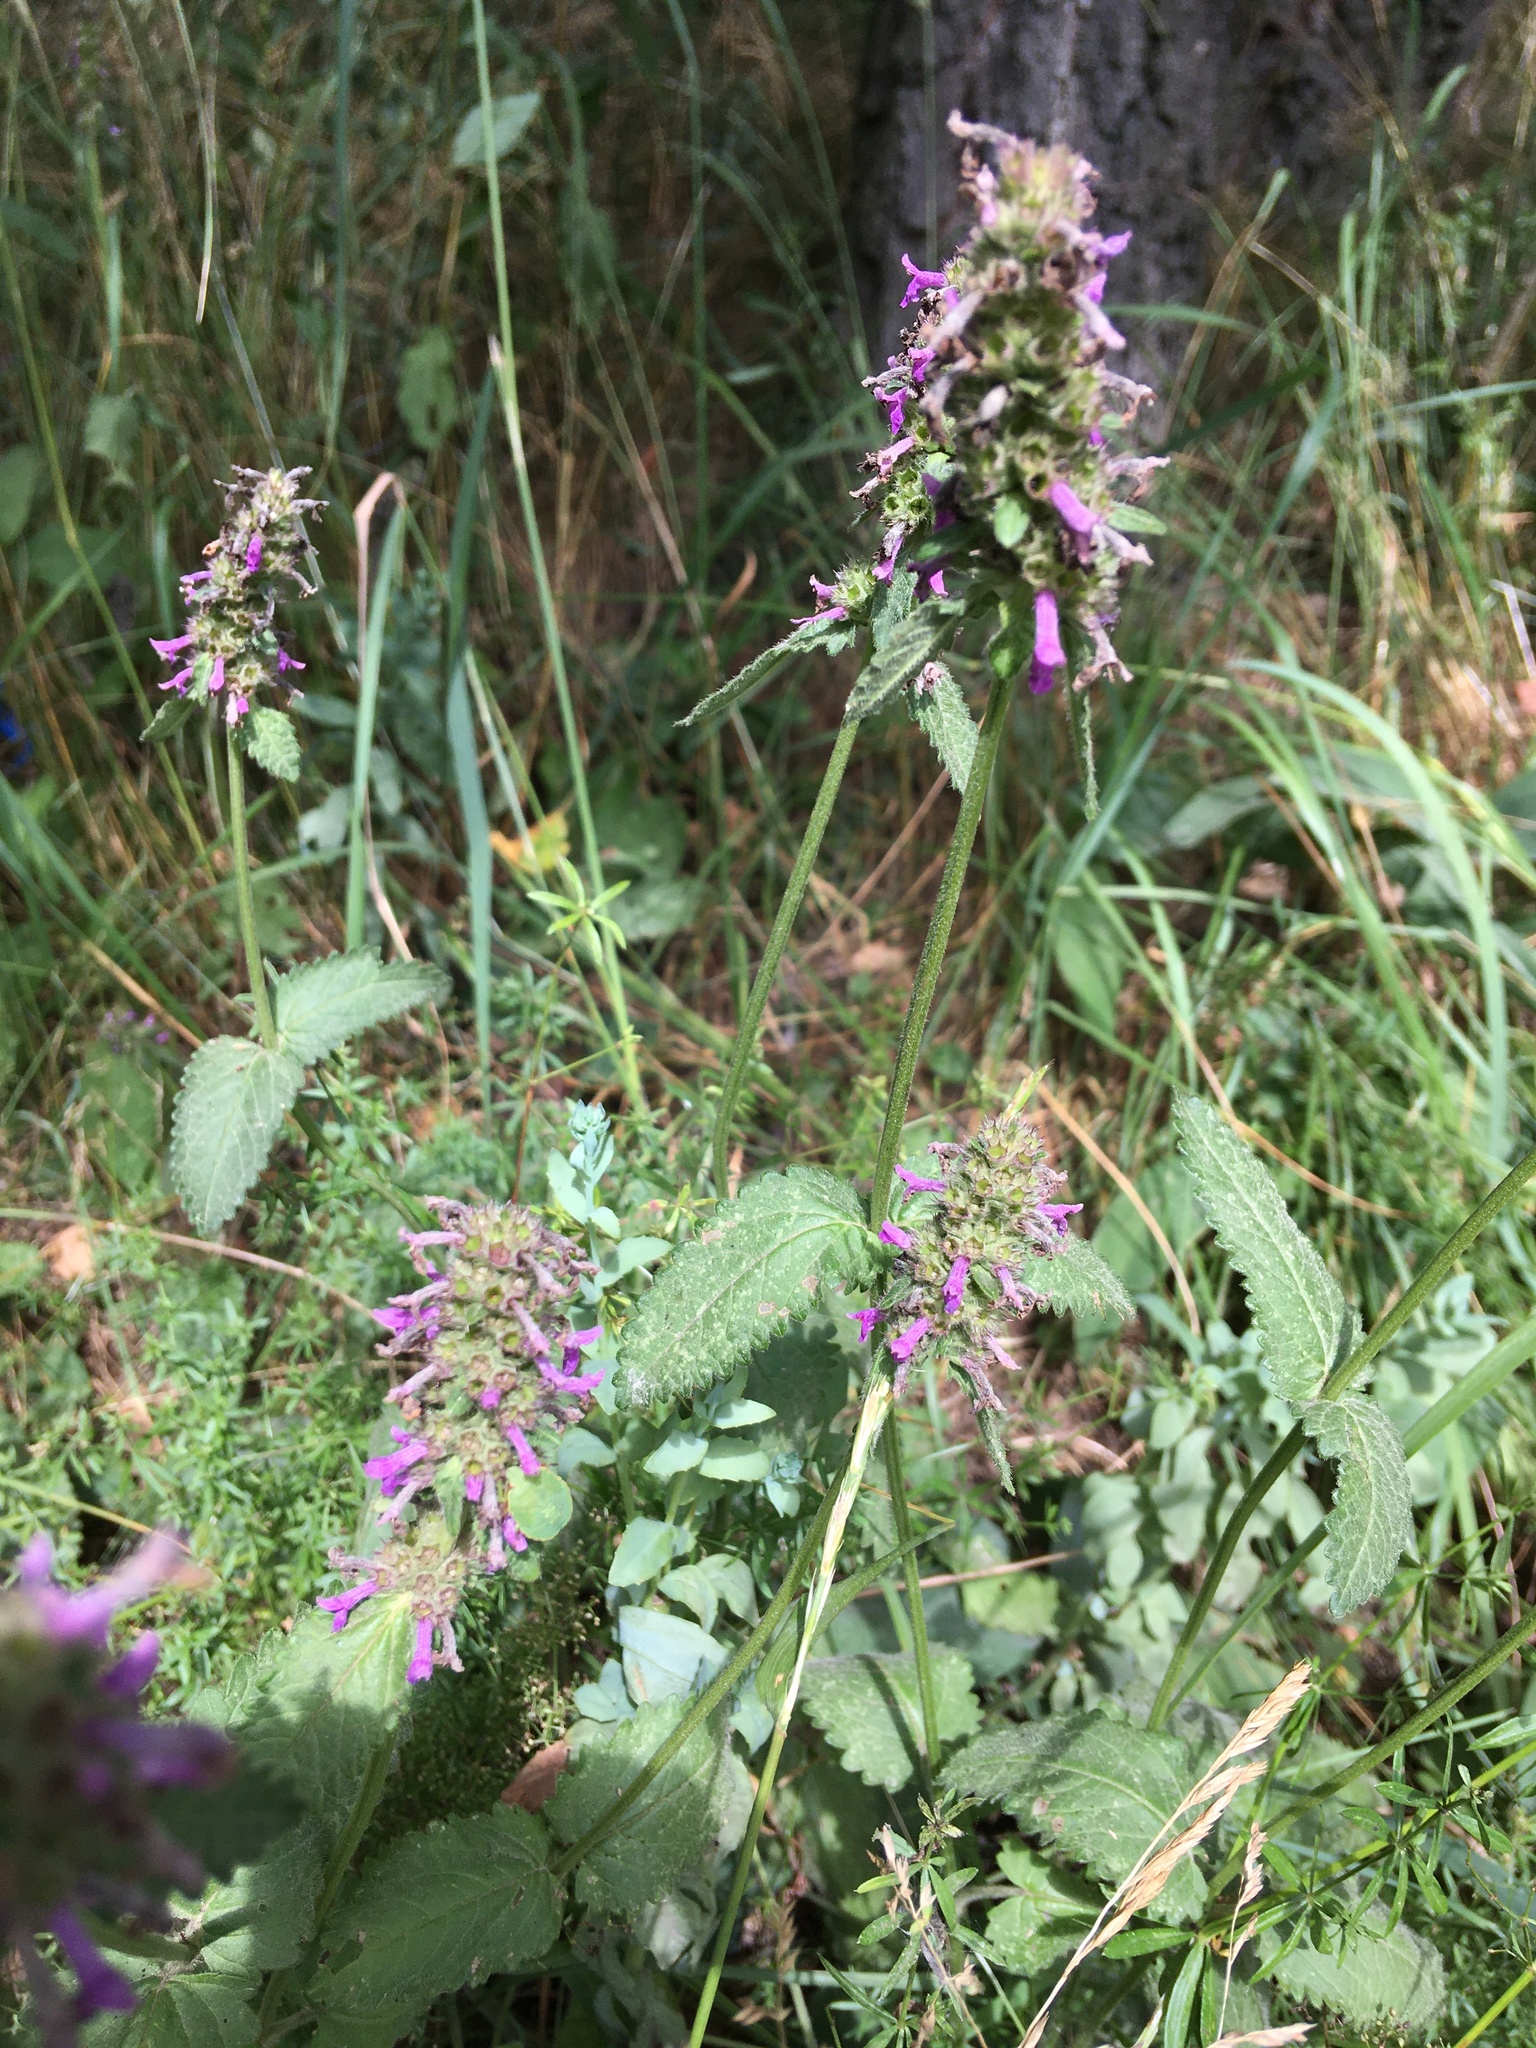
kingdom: Plantae
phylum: Tracheophyta
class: Magnoliopsida
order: Lamiales
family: Lamiaceae
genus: Betonica
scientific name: Betonica officinalis
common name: Bishop's-wort
